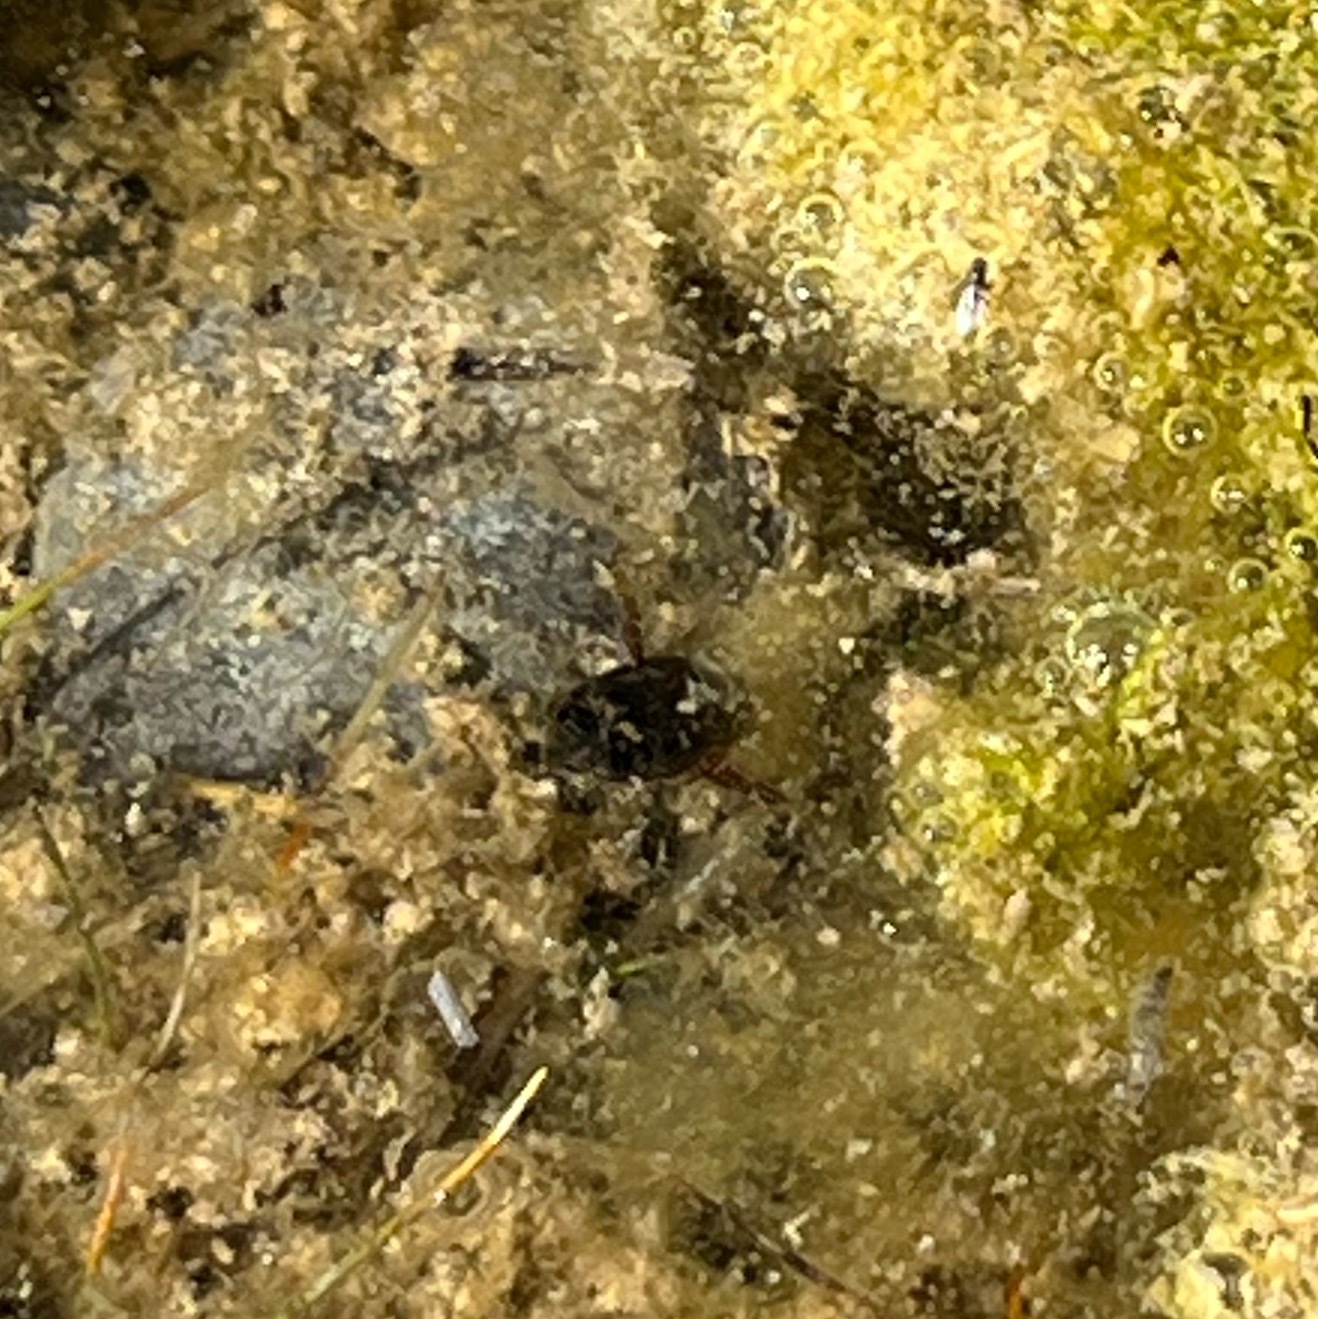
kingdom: Animalia
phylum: Arthropoda
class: Insecta
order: Coleoptera
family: Dytiscidae
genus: Acilius
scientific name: Acilius
